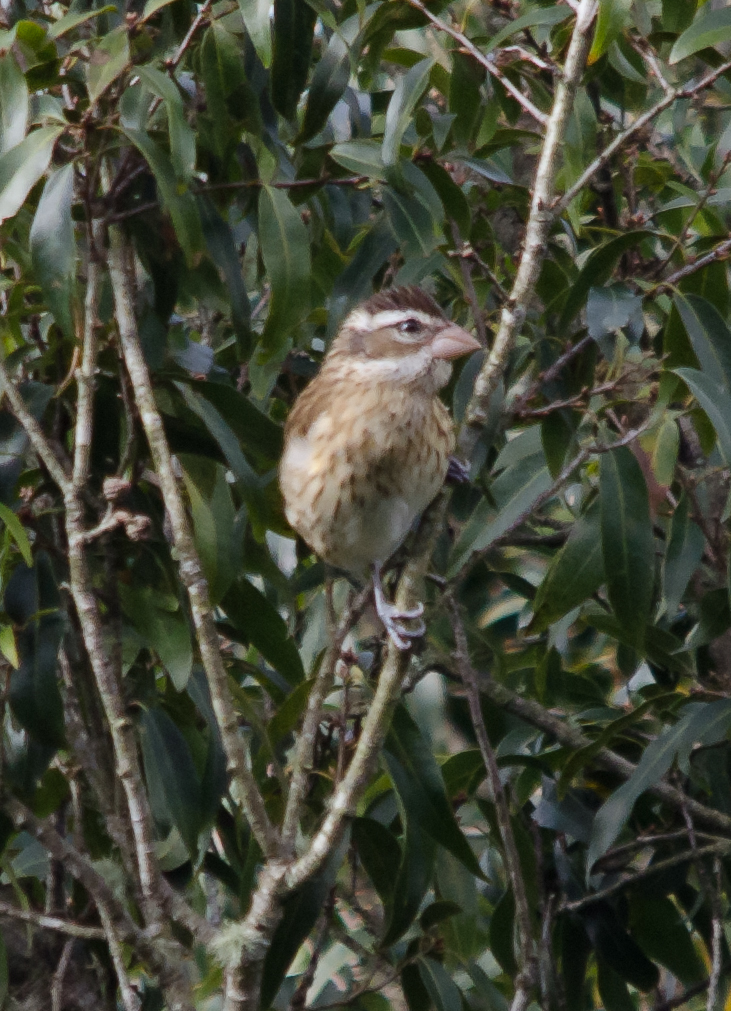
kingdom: Animalia
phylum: Chordata
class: Aves
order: Passeriformes
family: Cardinalidae
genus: Pheucticus
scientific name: Pheucticus ludovicianus
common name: Rose-breasted grosbeak
